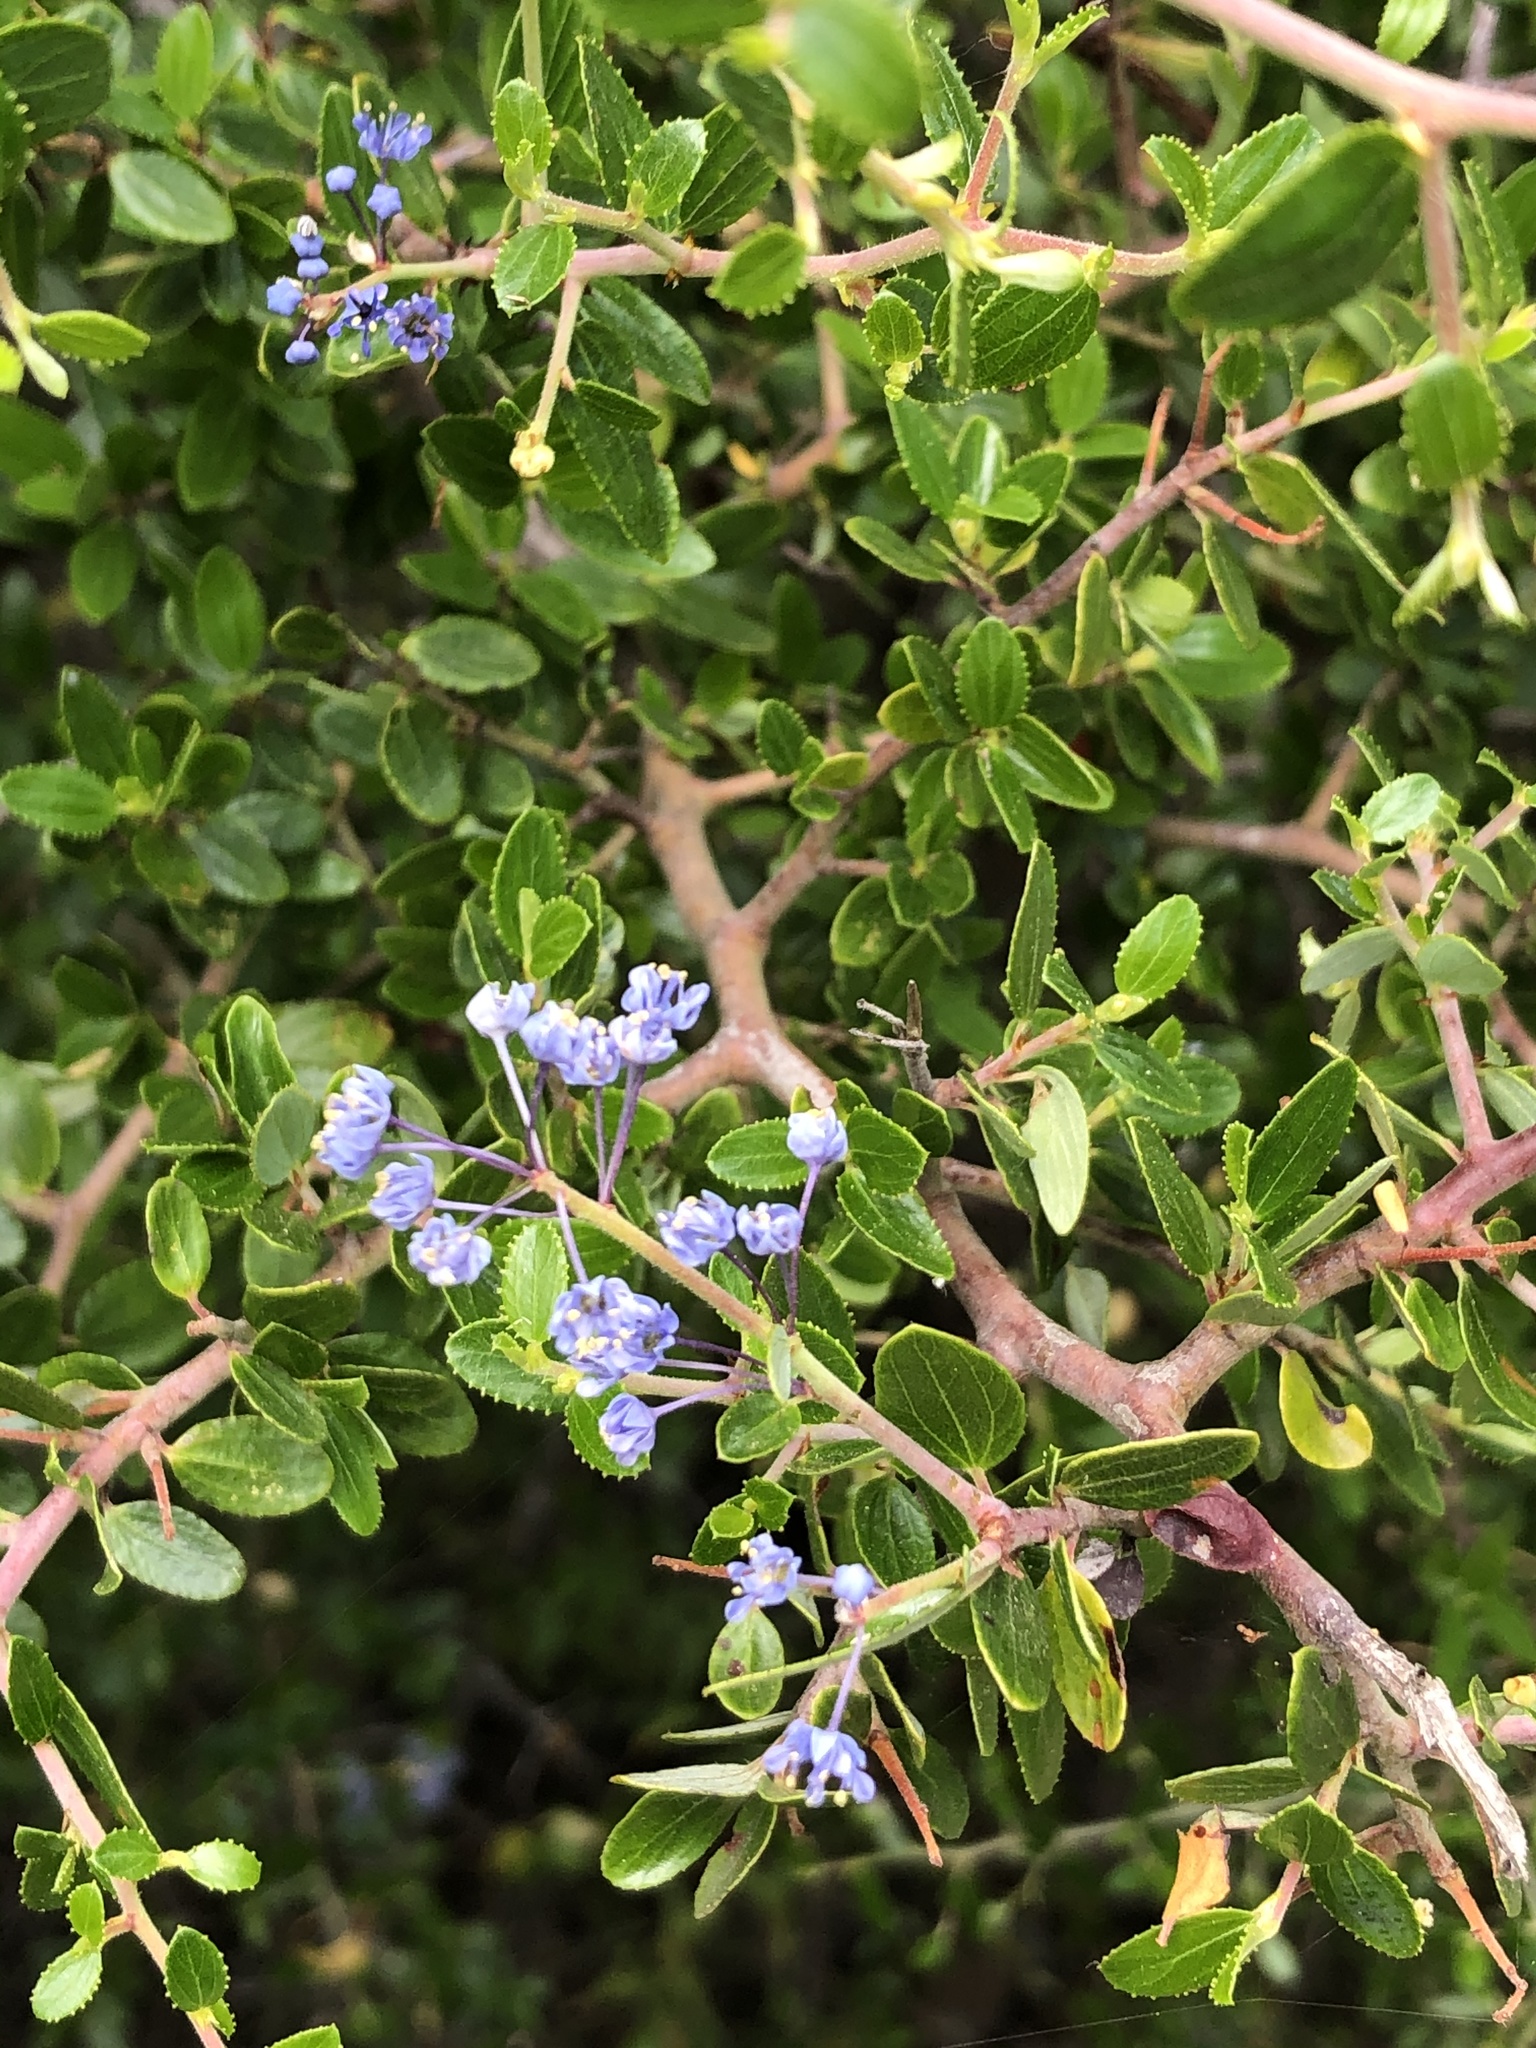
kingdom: Plantae
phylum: Tracheophyta
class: Magnoliopsida
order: Rosales
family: Rhamnaceae
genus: Ceanothus
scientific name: Ceanothus oliganthus
